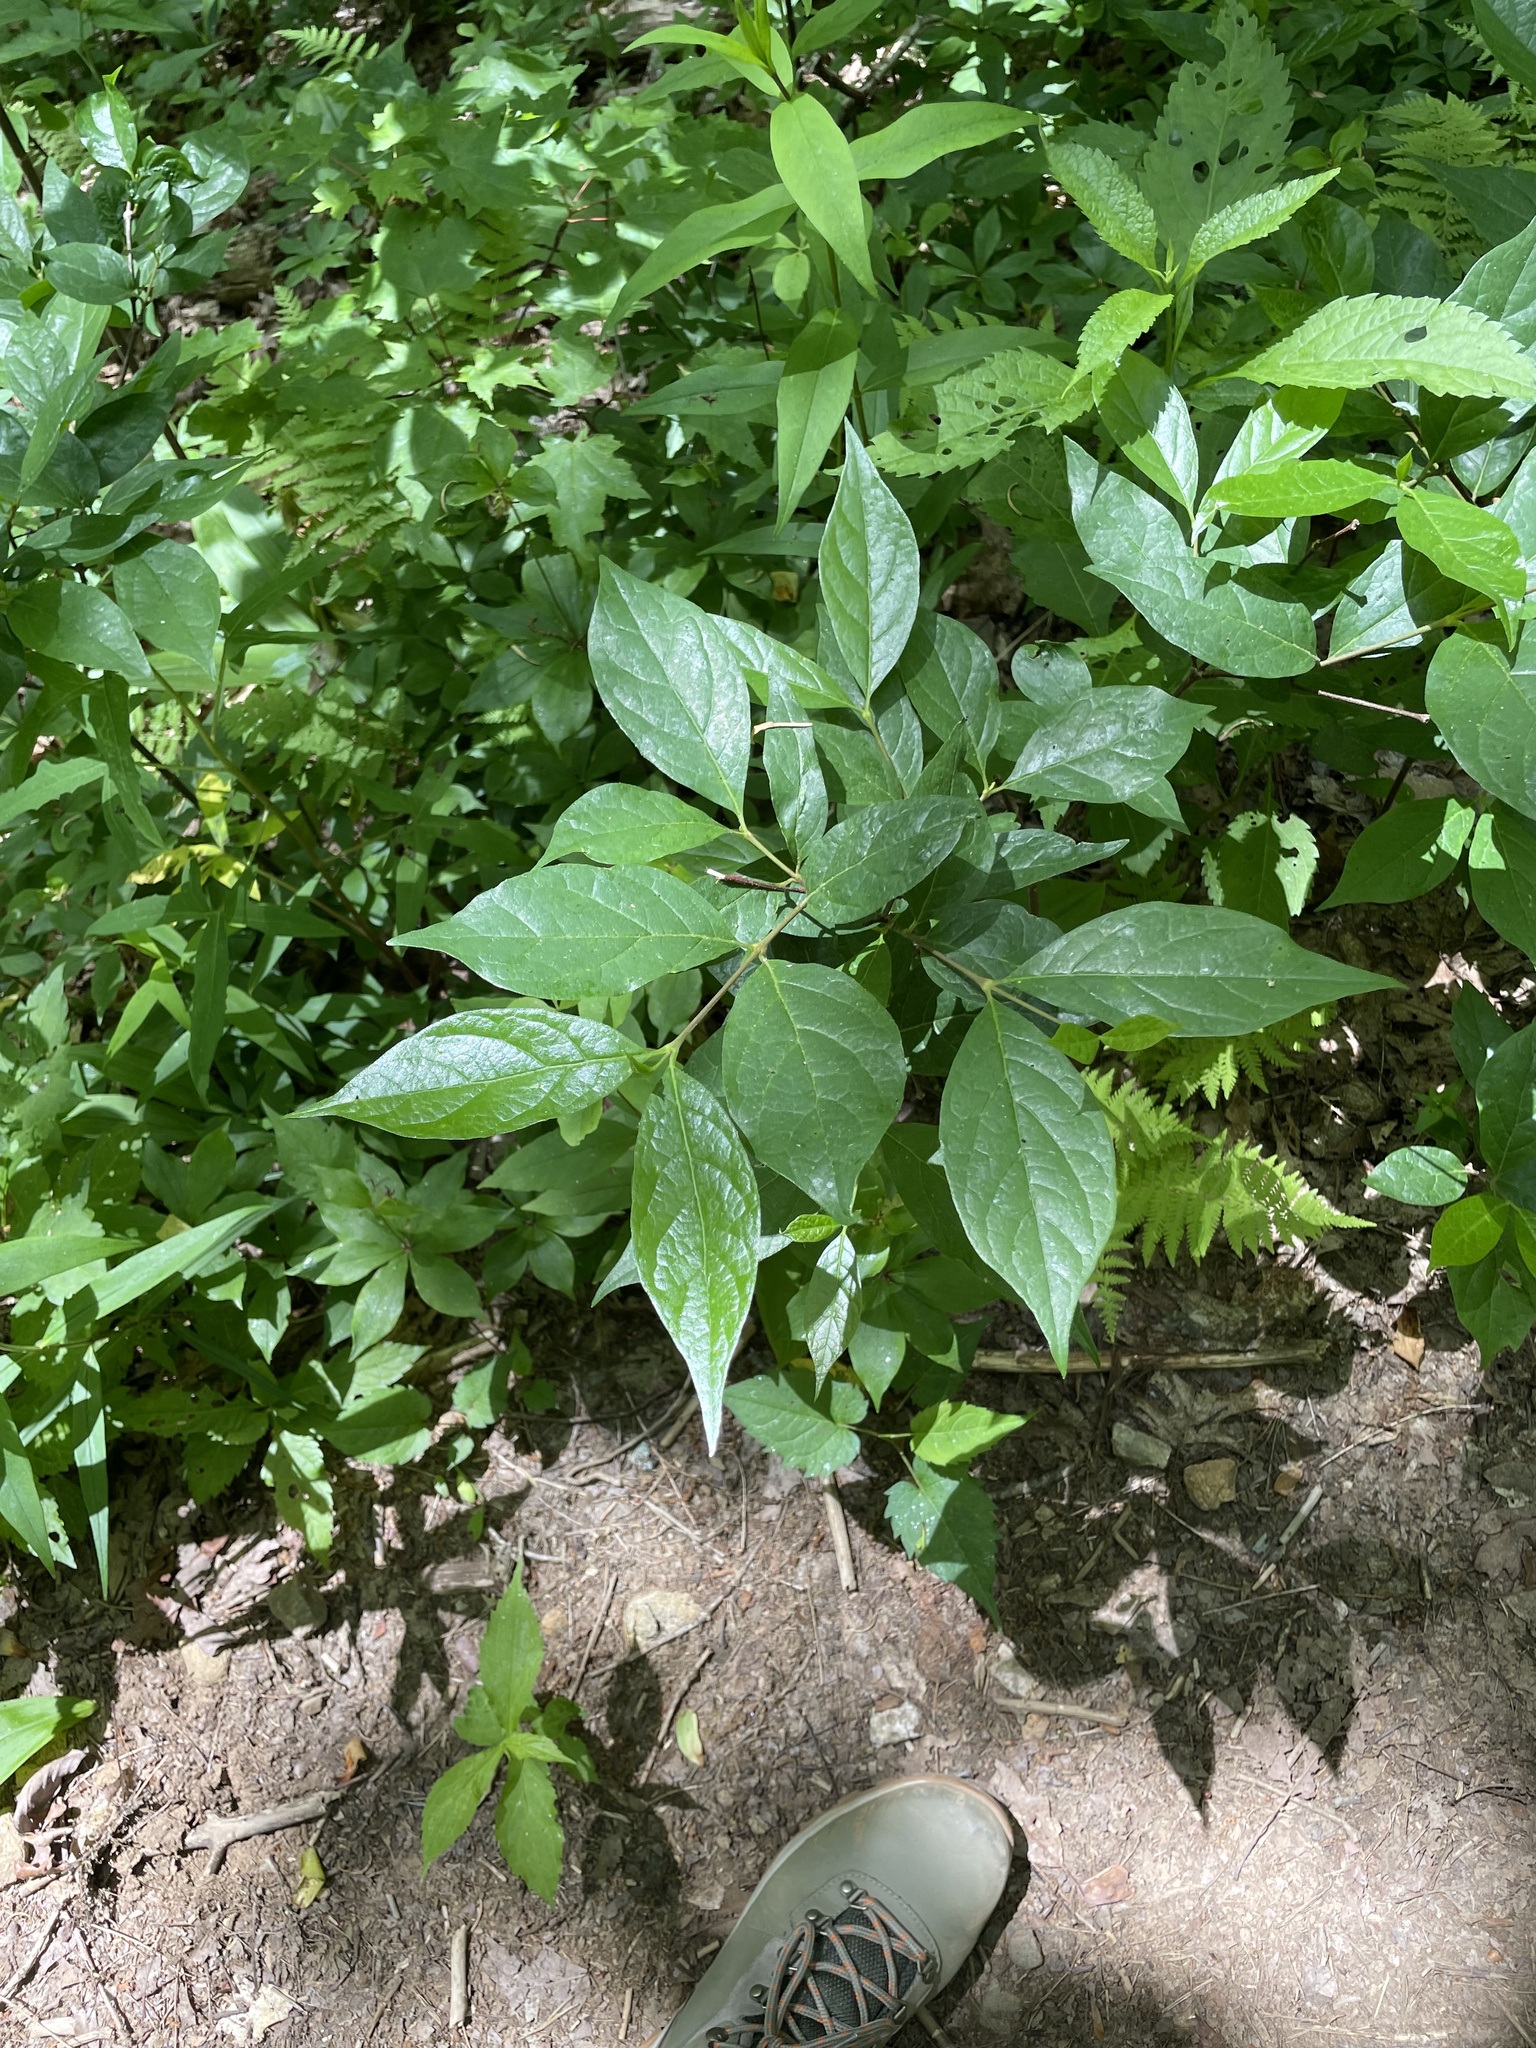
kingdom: Plantae
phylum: Tracheophyta
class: Magnoliopsida
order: Laurales
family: Calycanthaceae
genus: Calycanthus
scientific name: Calycanthus floridus
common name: Carolina-allspice
